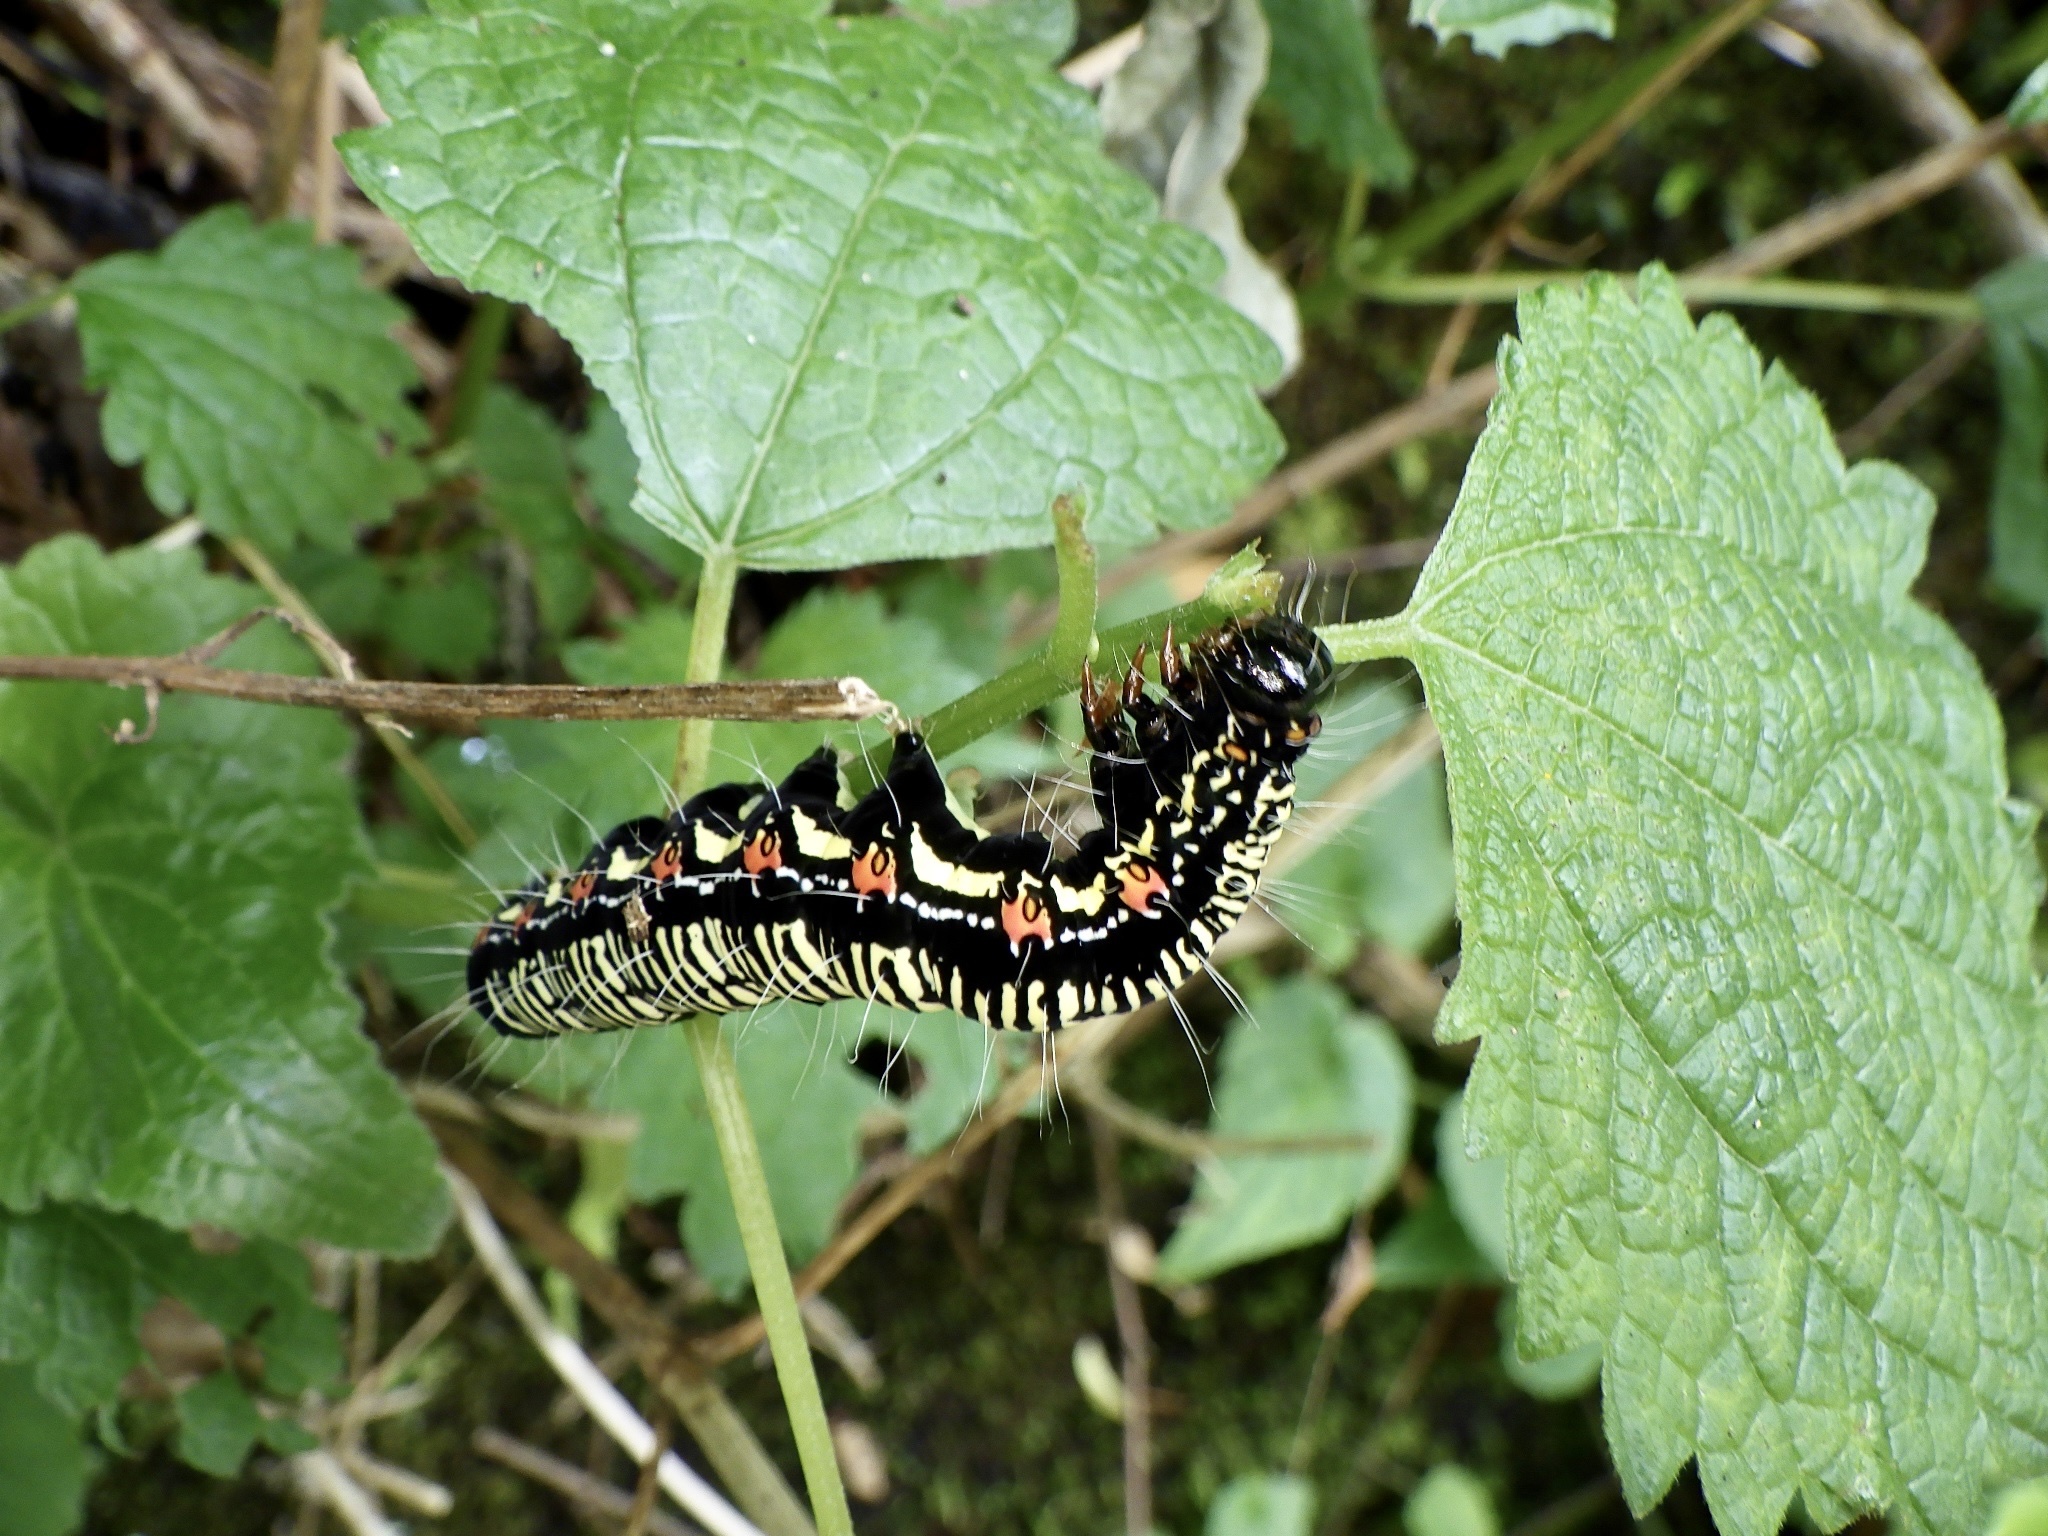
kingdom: Animalia
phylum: Arthropoda
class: Insecta
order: Lepidoptera
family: Erebidae
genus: Arcte
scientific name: Arcte coerula
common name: Ramie moth
